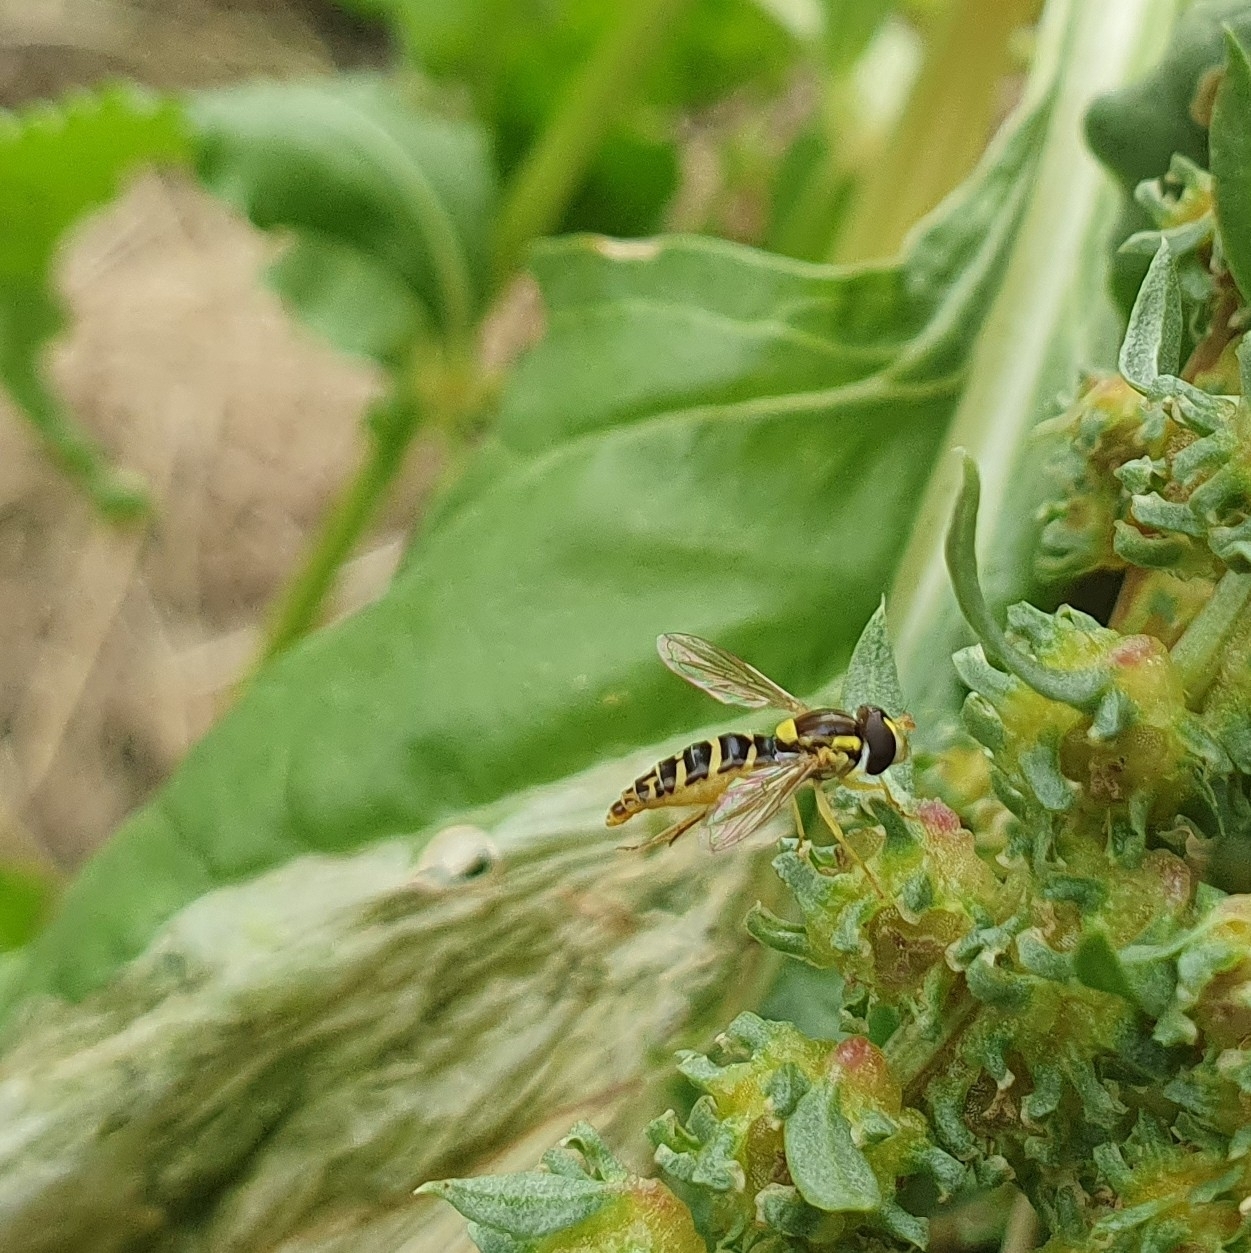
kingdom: Animalia
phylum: Arthropoda
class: Insecta
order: Diptera
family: Syrphidae
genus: Sphaerophoria
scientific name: Sphaerophoria
